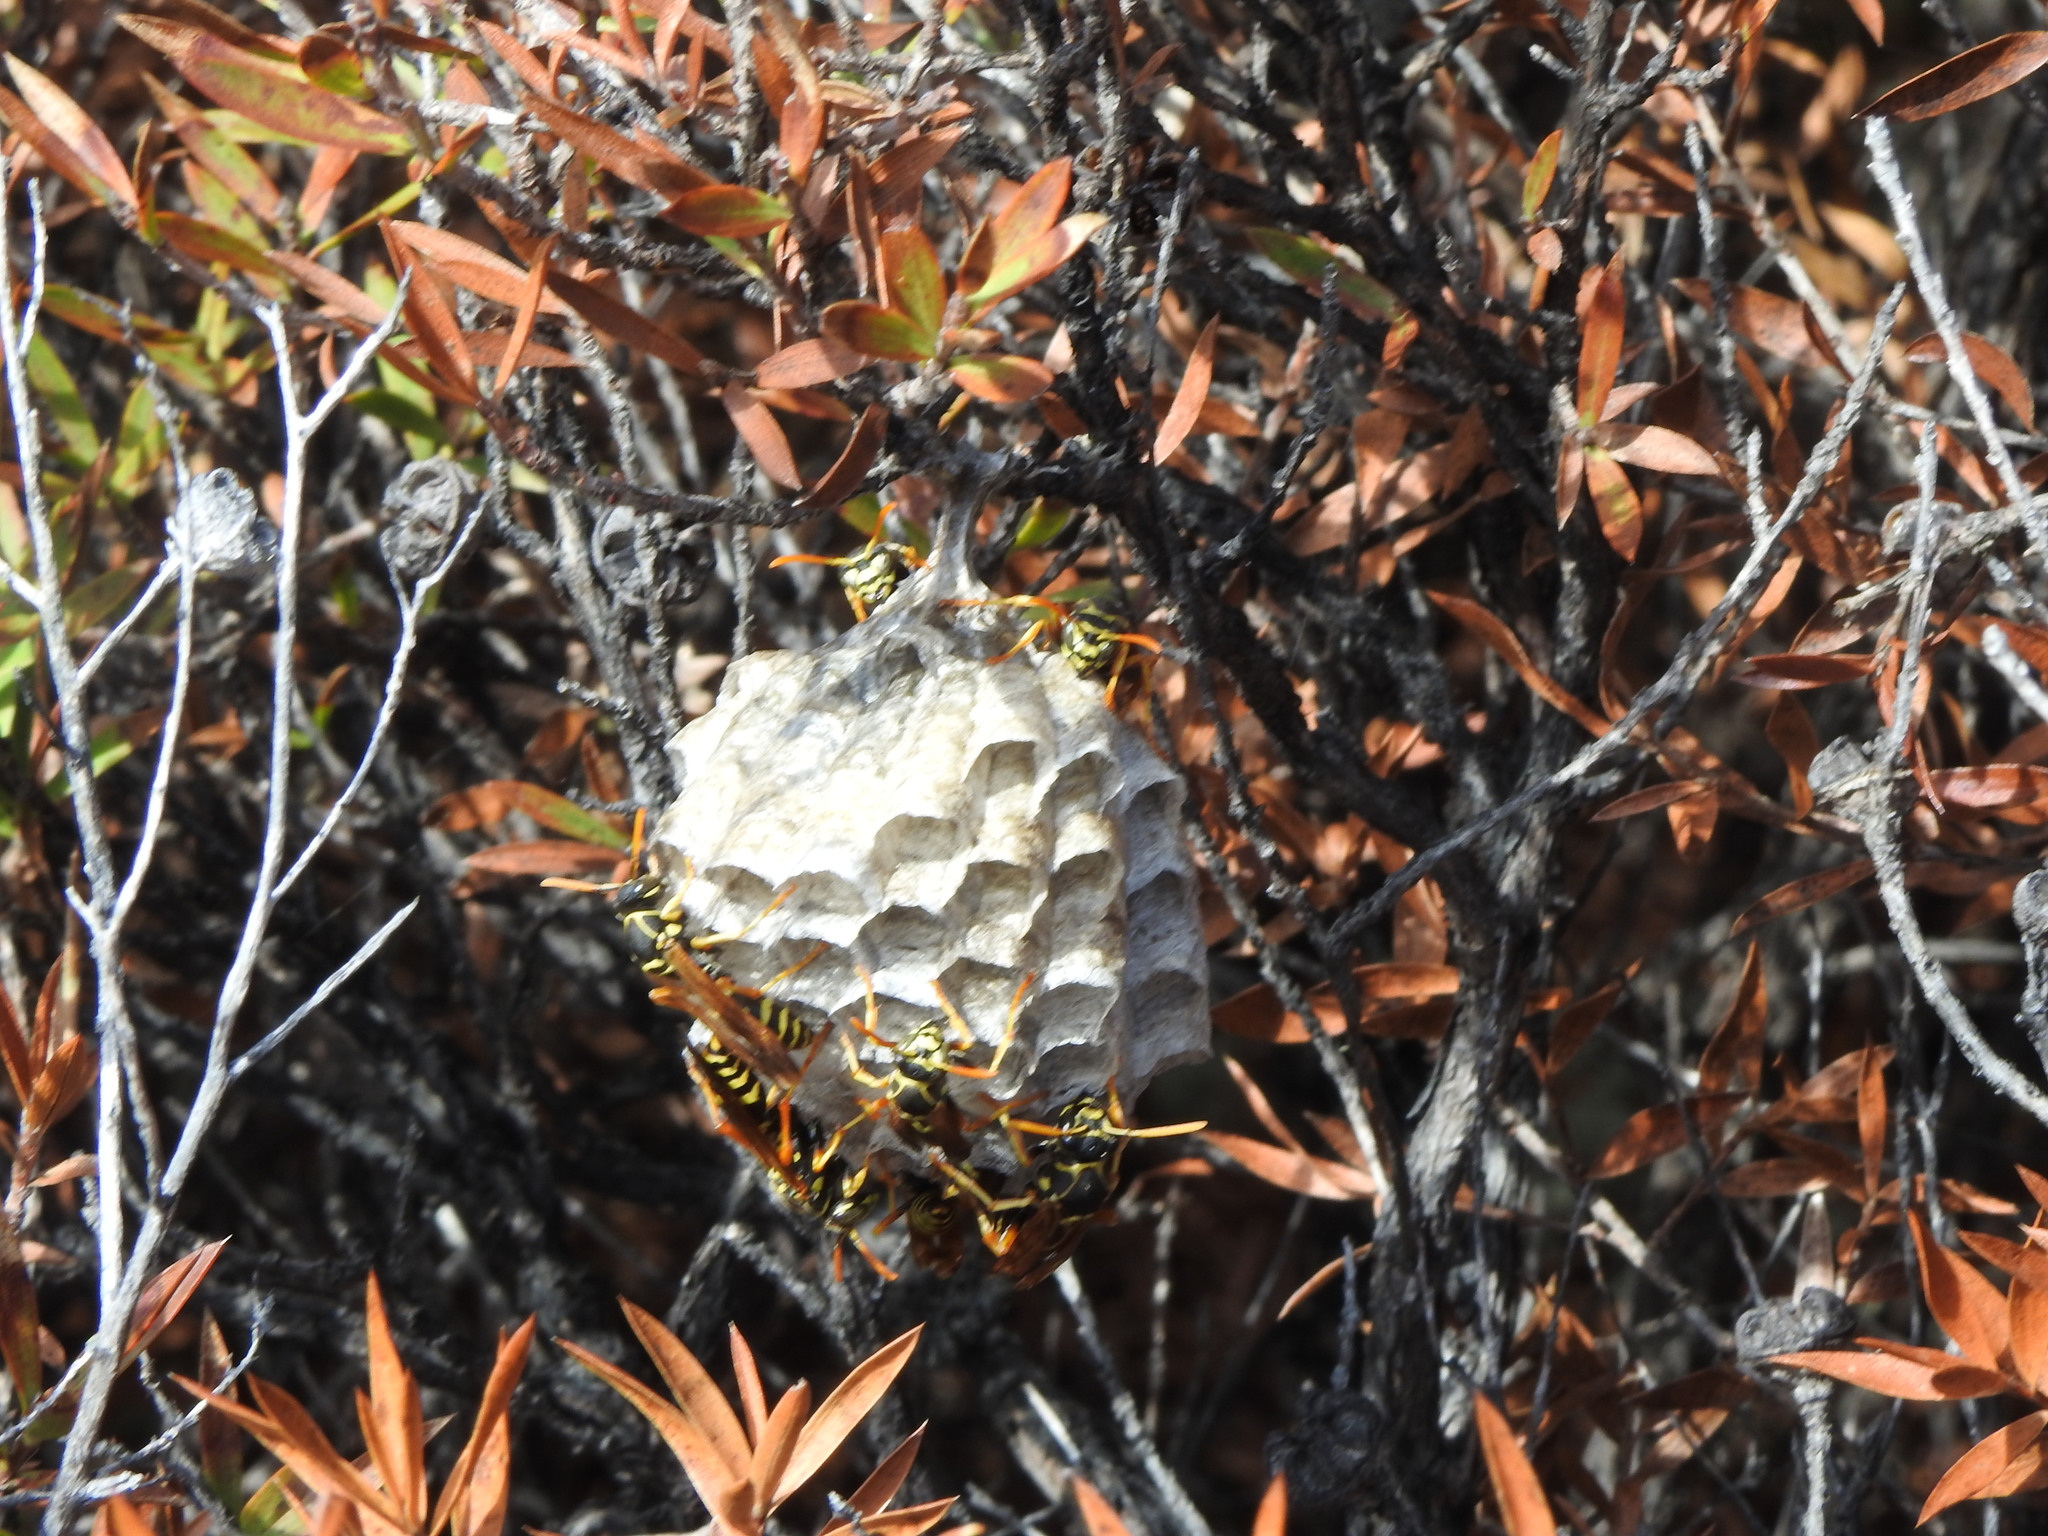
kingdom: Animalia
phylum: Arthropoda
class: Insecta
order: Hymenoptera
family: Eumenidae
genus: Polistes
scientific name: Polistes chinensis
